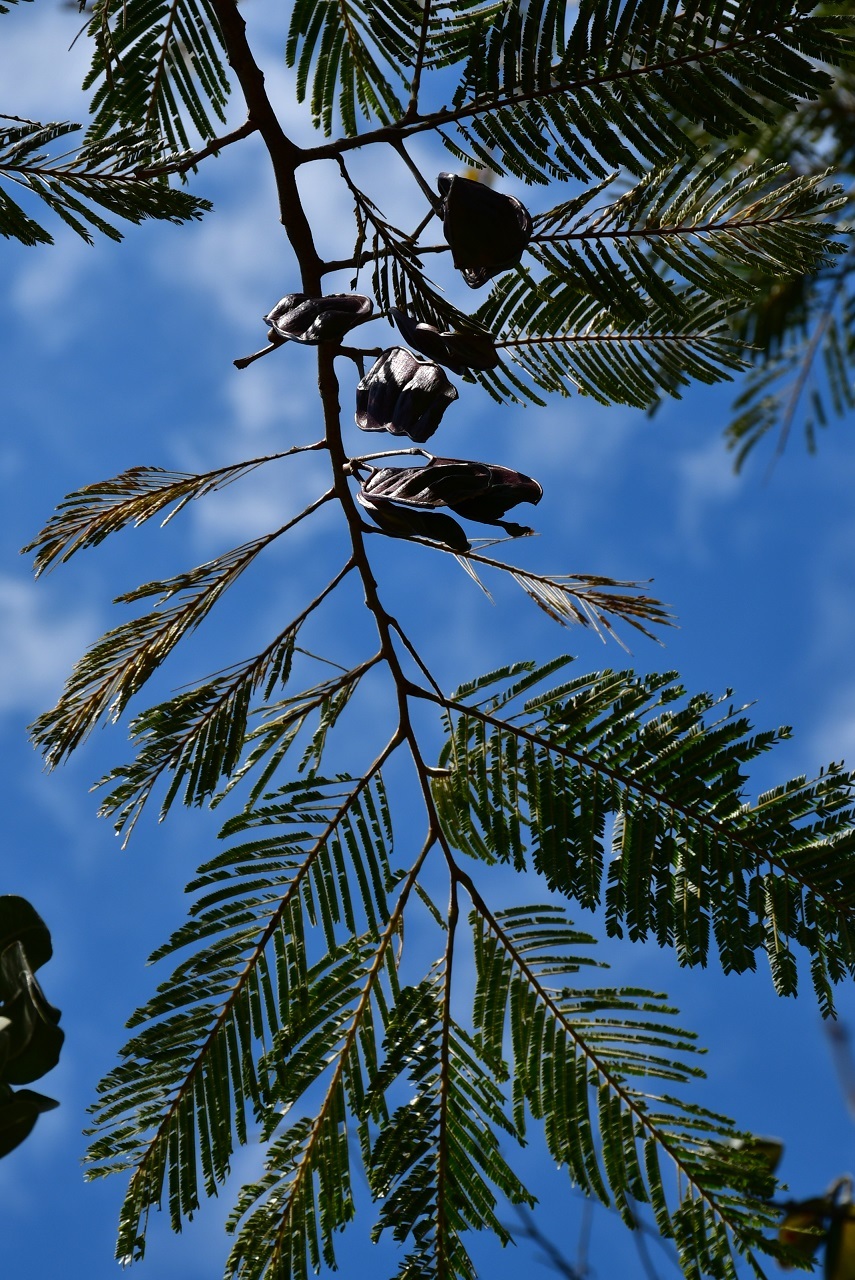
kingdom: Plantae
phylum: Tracheophyta
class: Magnoliopsida
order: Fabales
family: Fabaceae
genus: Lysiloma
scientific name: Lysiloma auritum
